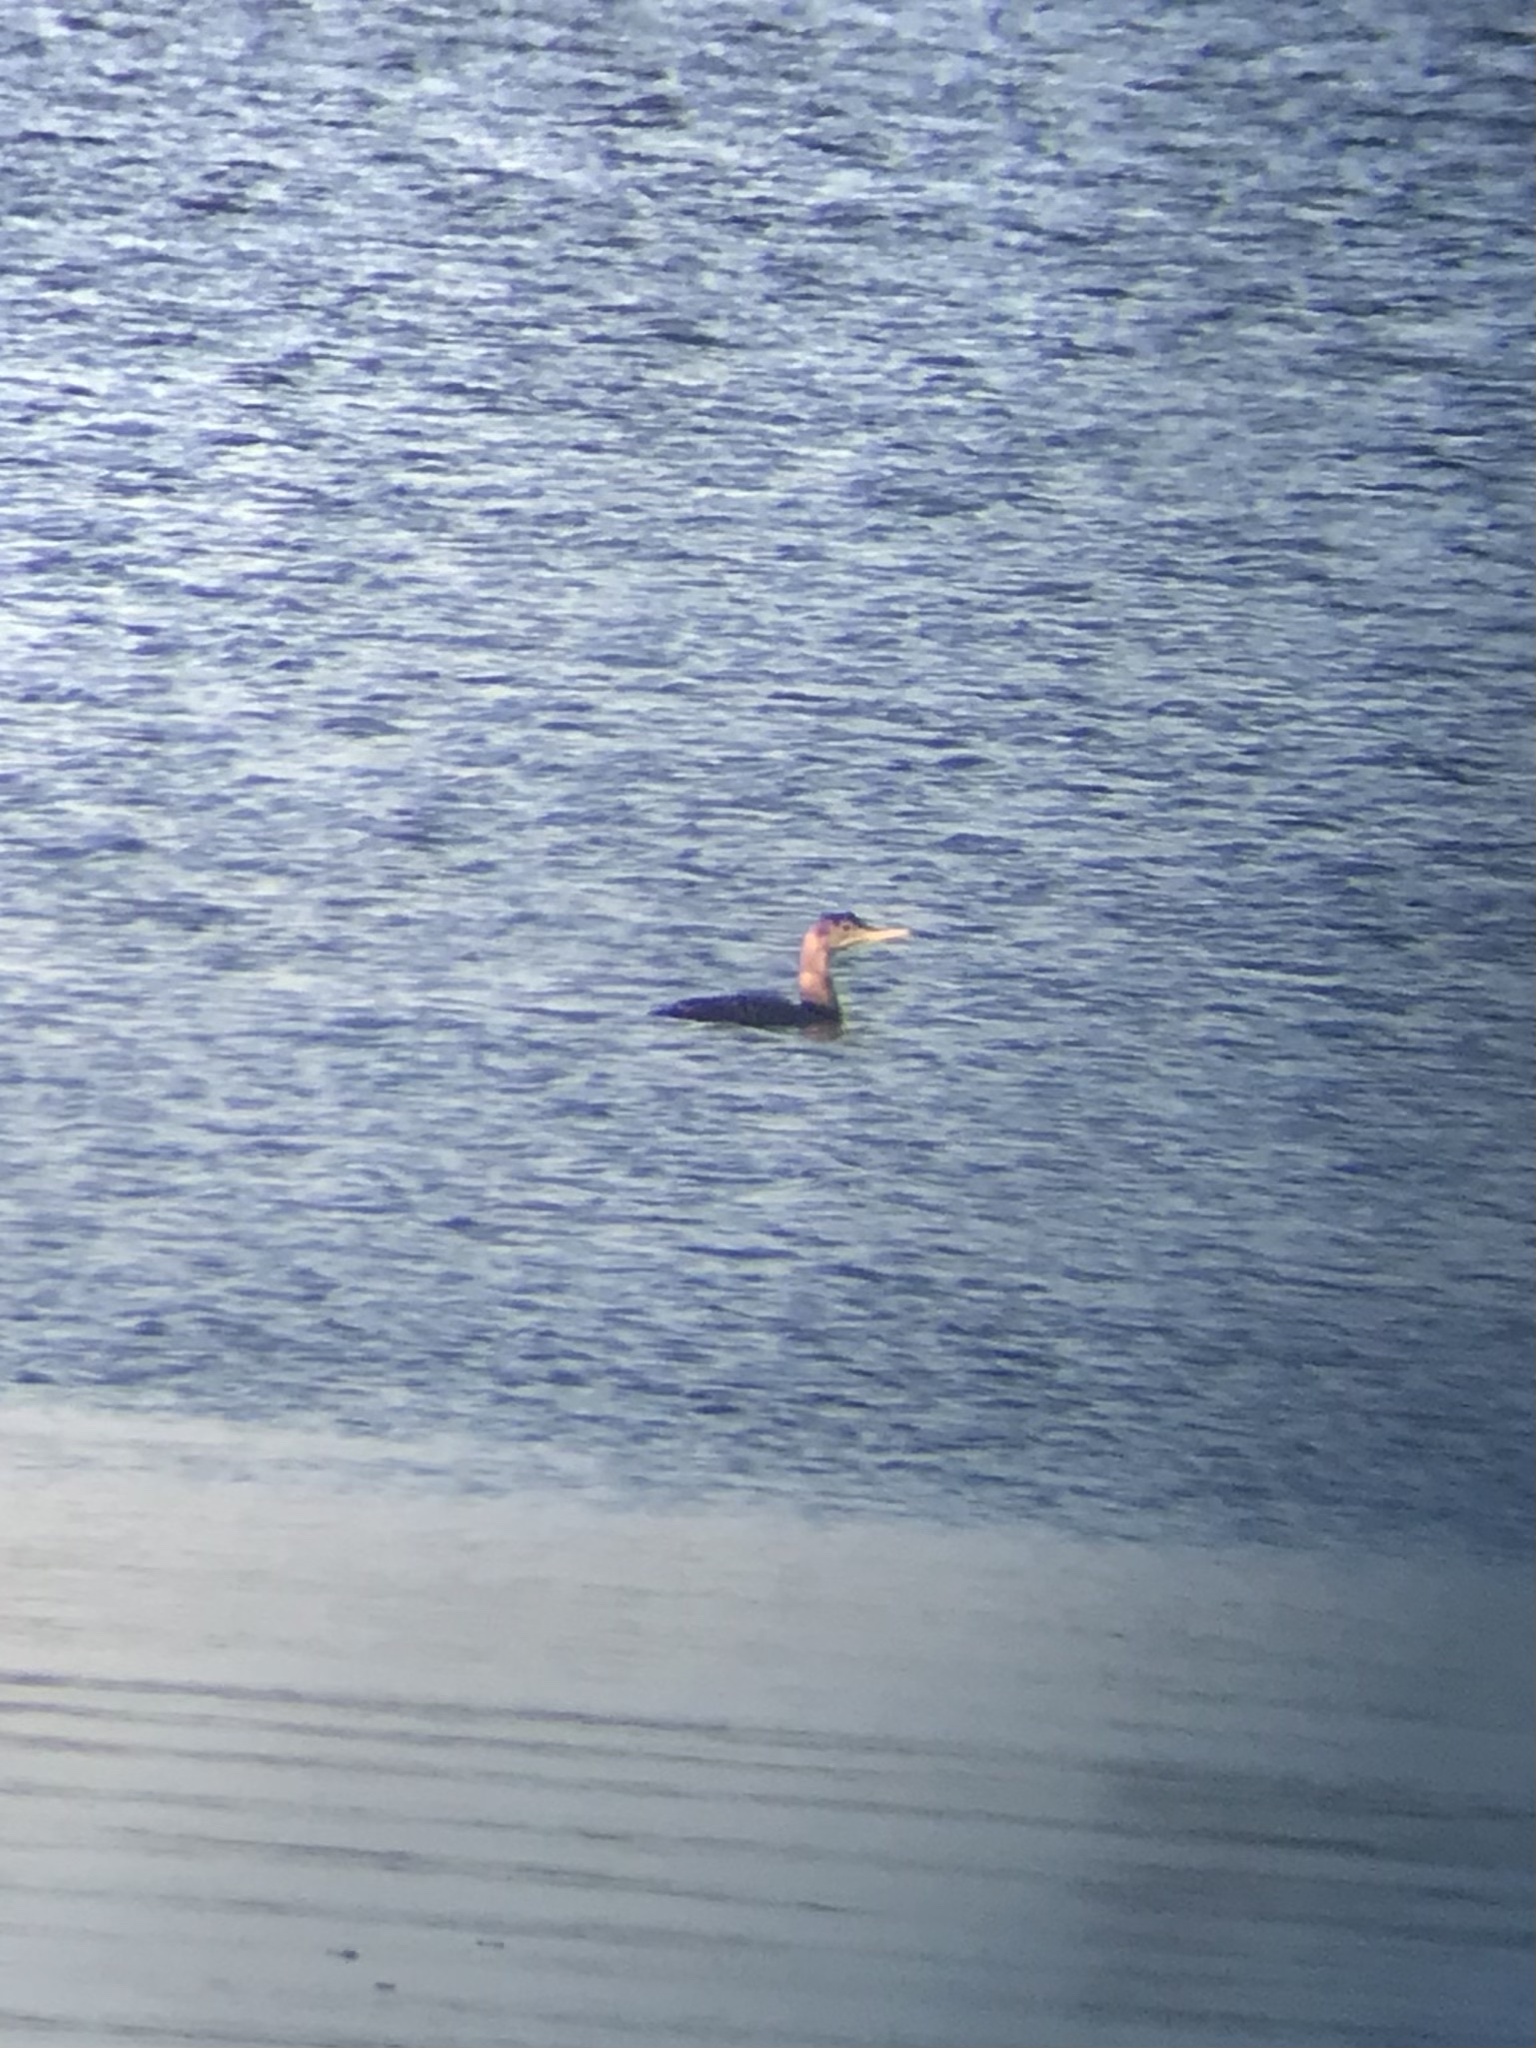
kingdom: Animalia
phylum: Chordata
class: Aves
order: Gaviiformes
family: Gaviidae
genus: Gavia
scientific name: Gavia adamsii
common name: Yellow-billed loon
